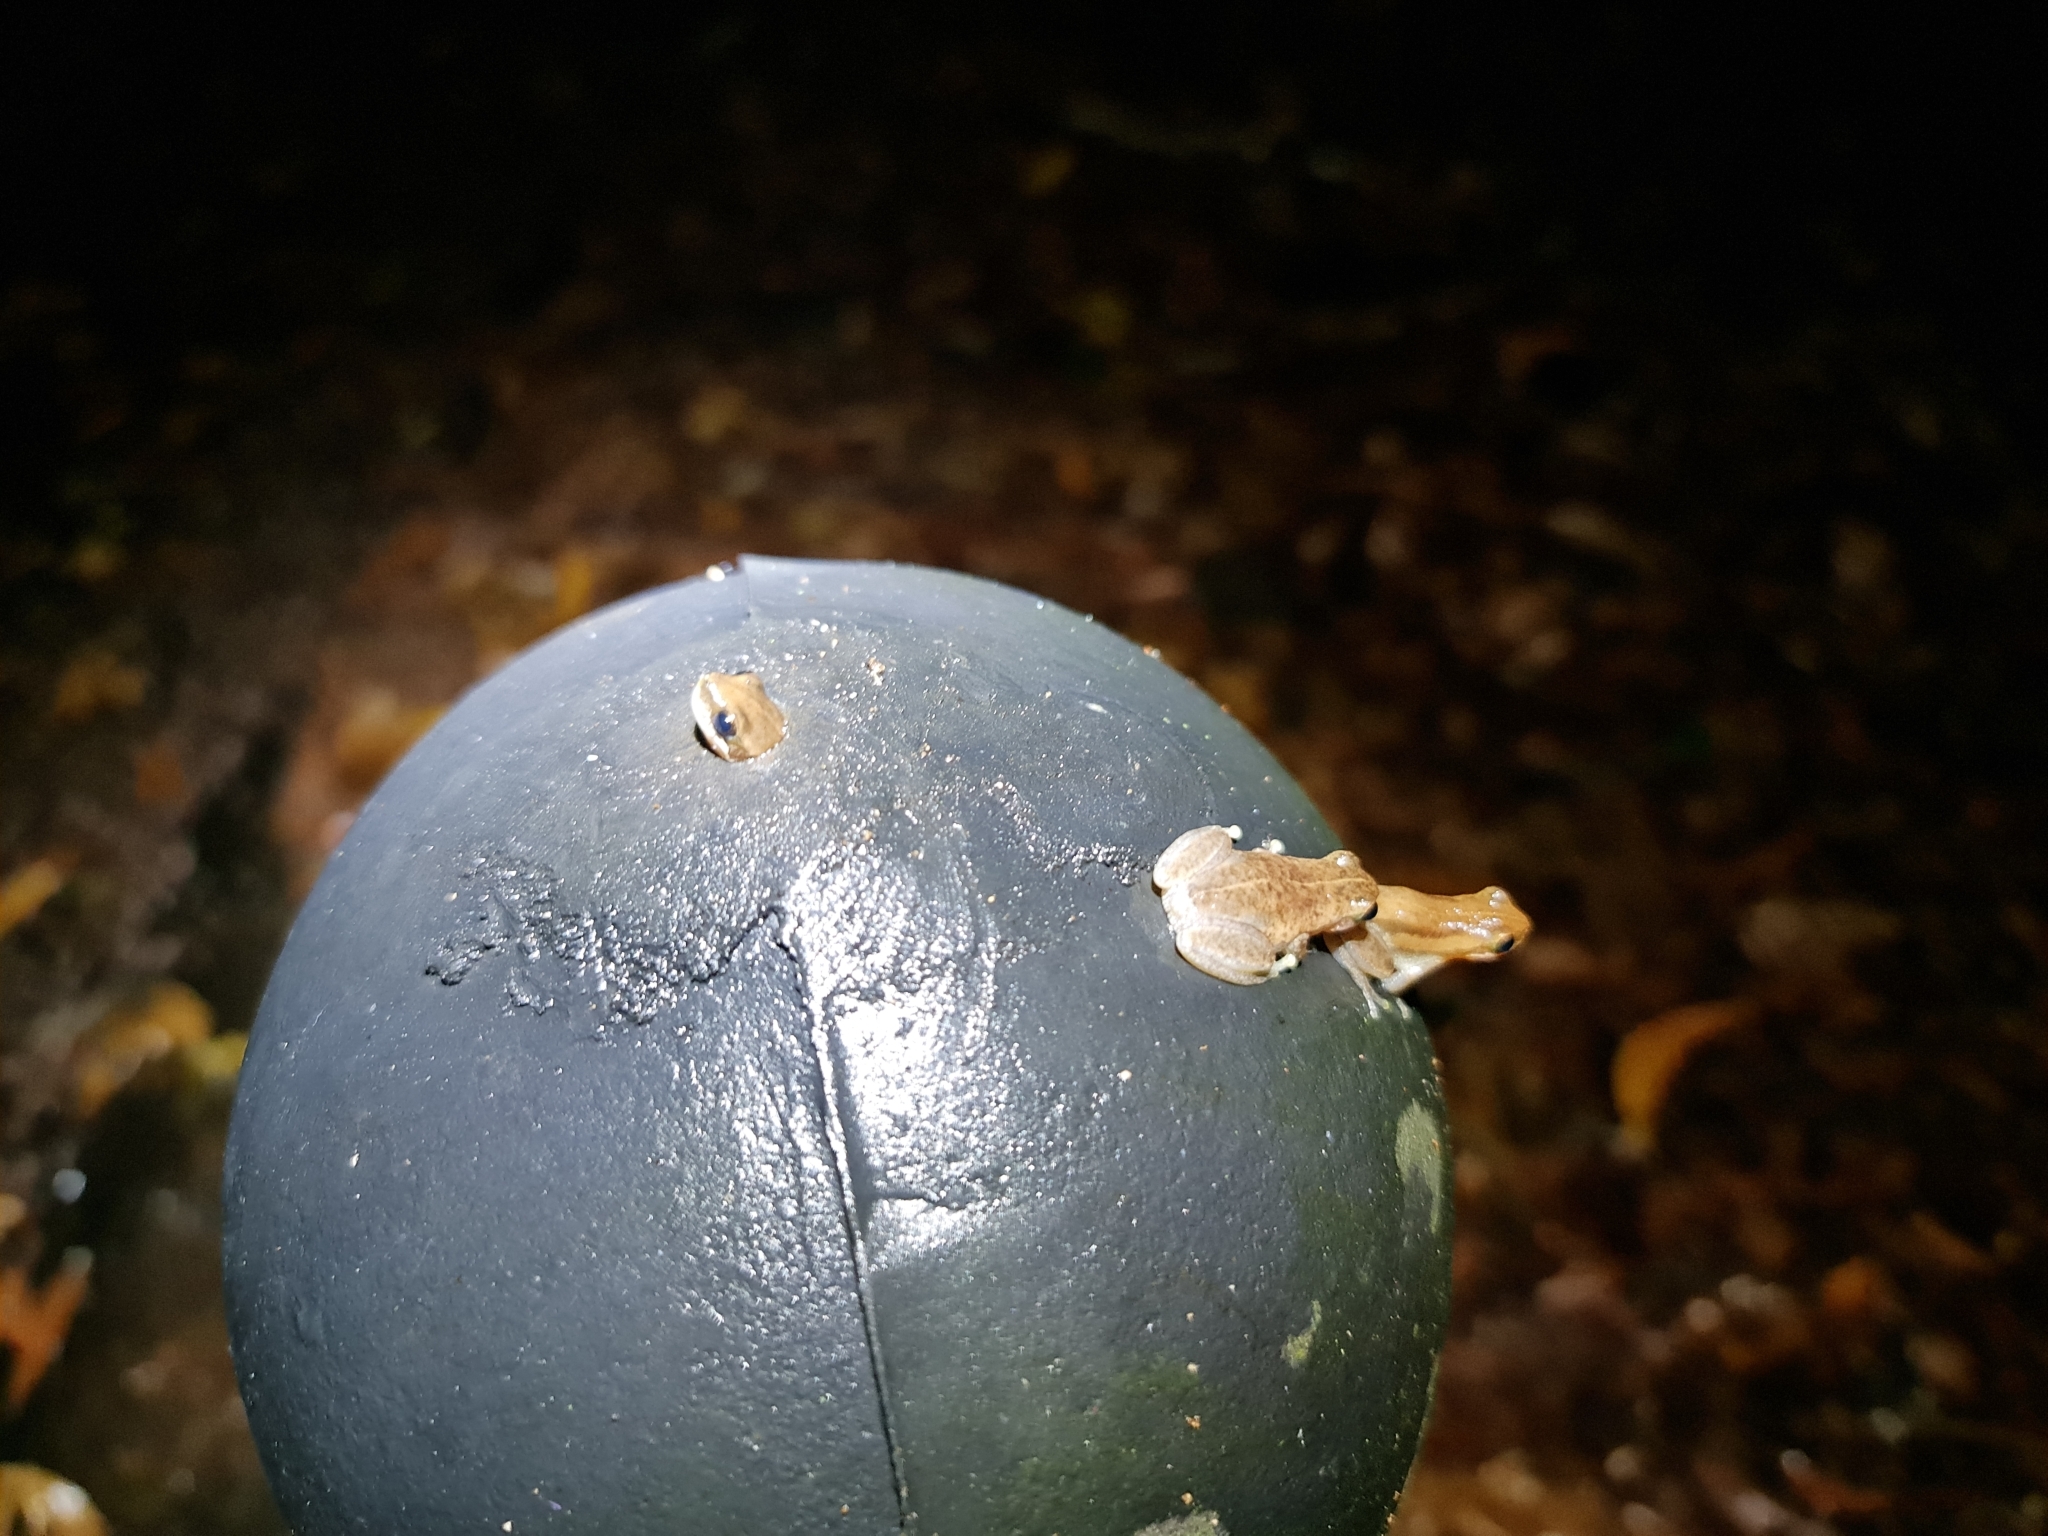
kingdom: Animalia
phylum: Chordata
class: Amphibia
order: Anura
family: Pelodryadidae
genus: Litoria
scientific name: Litoria rubella
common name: Desert tree frog
